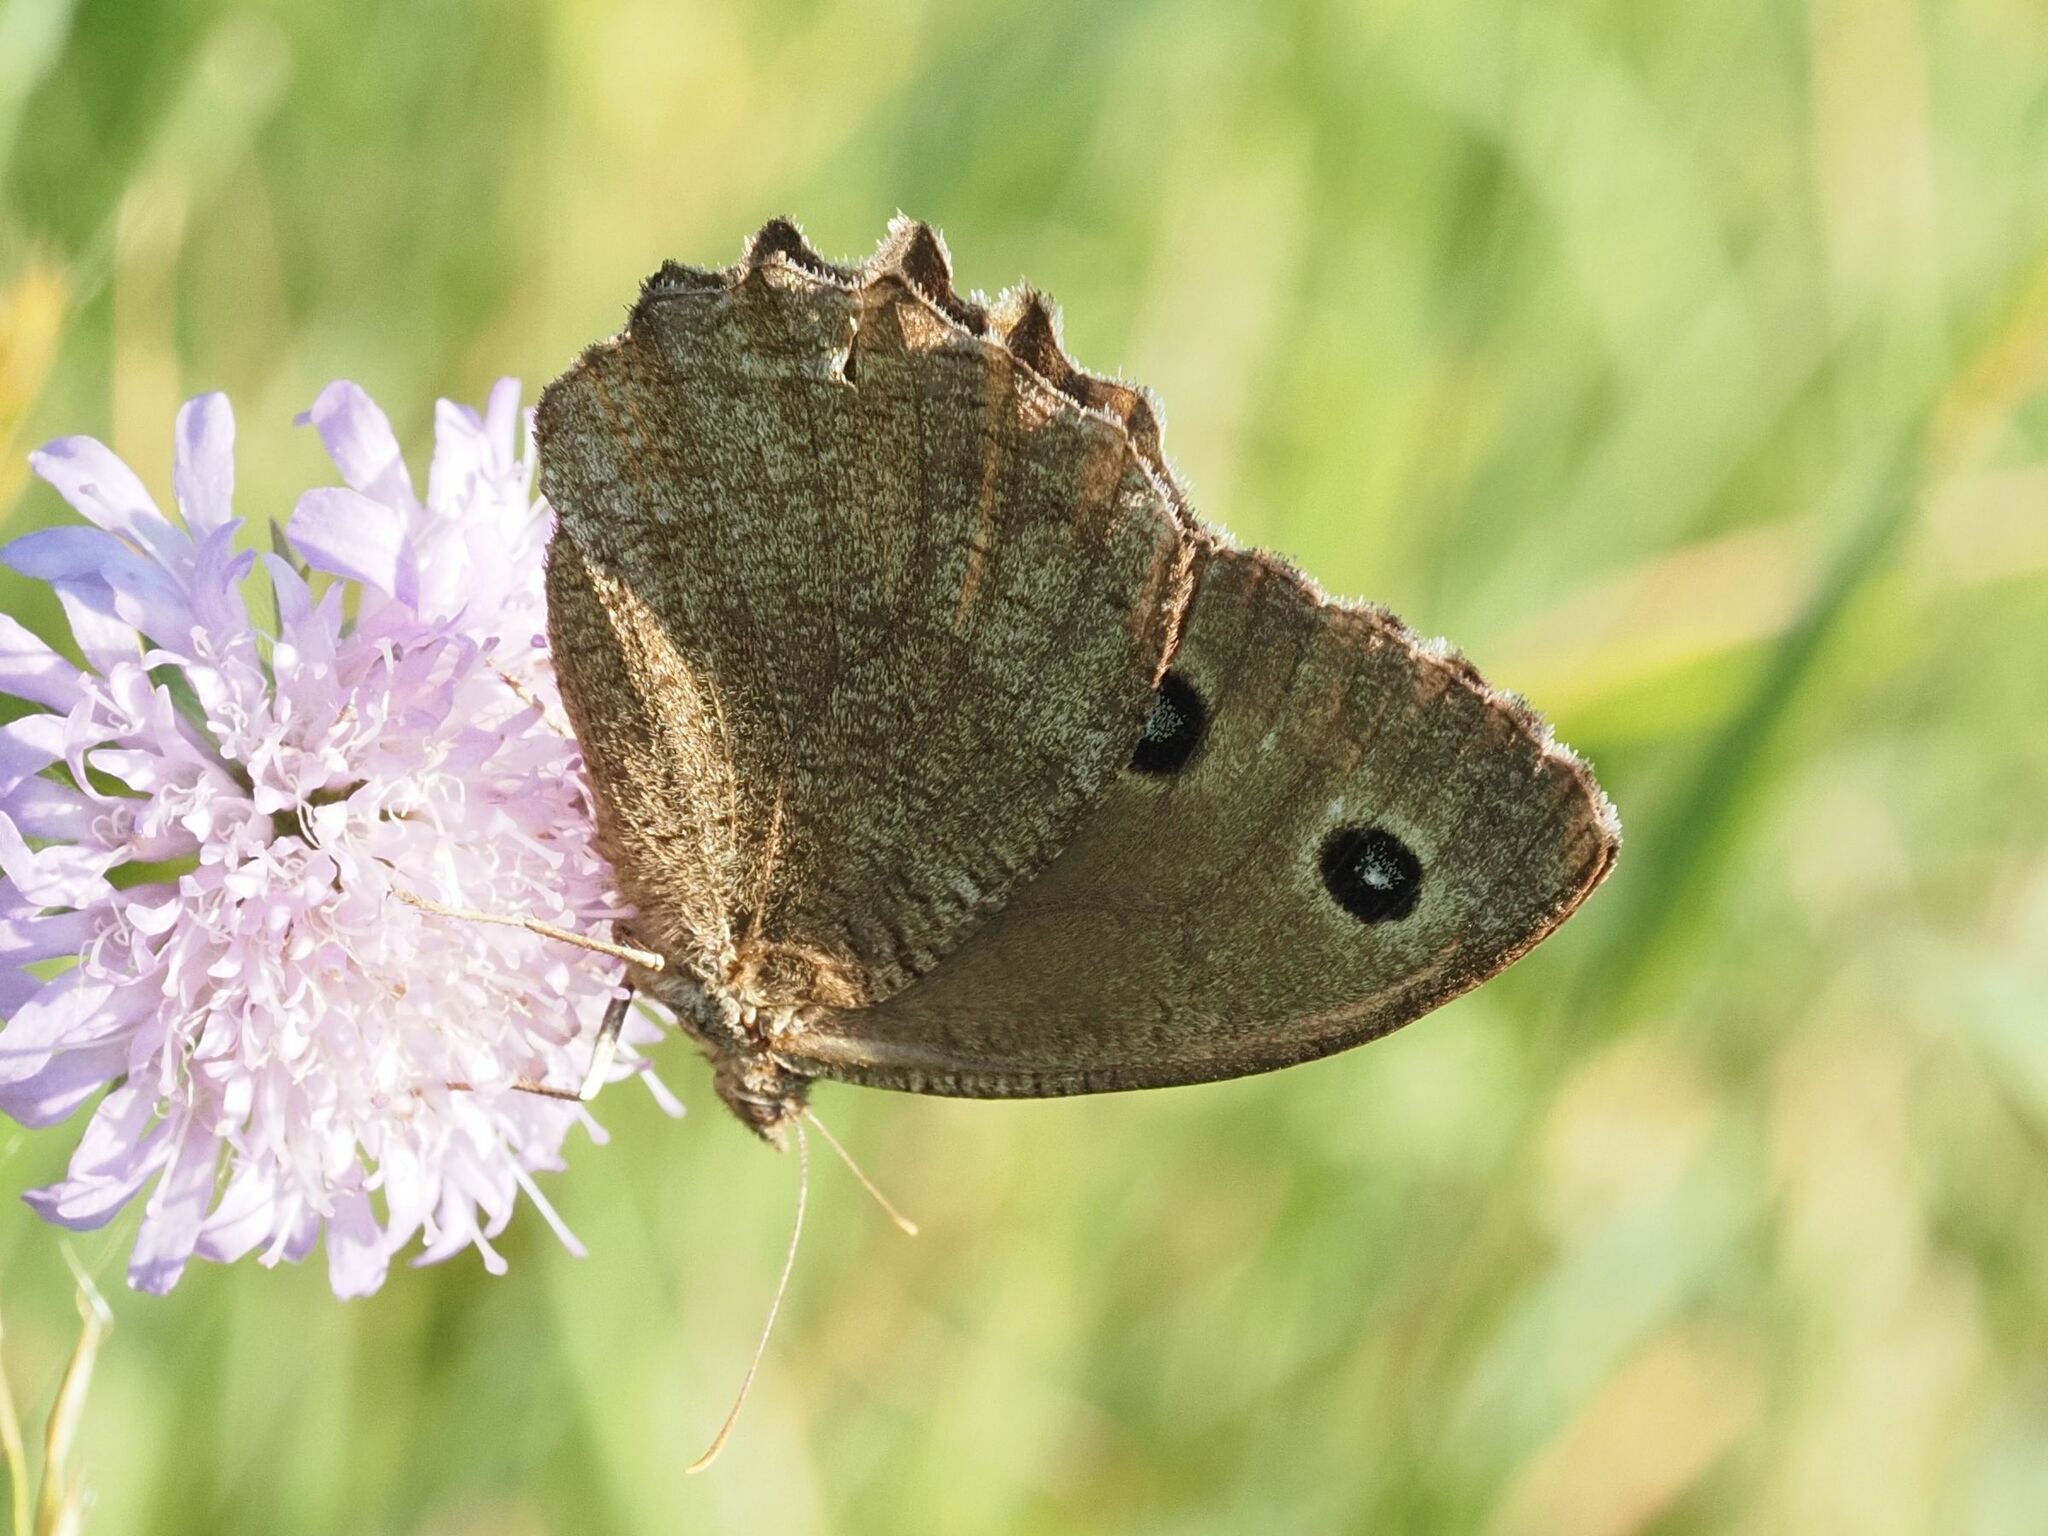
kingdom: Animalia
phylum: Arthropoda
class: Insecta
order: Lepidoptera
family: Nymphalidae
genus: Minois
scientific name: Minois dryas
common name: Dryad
